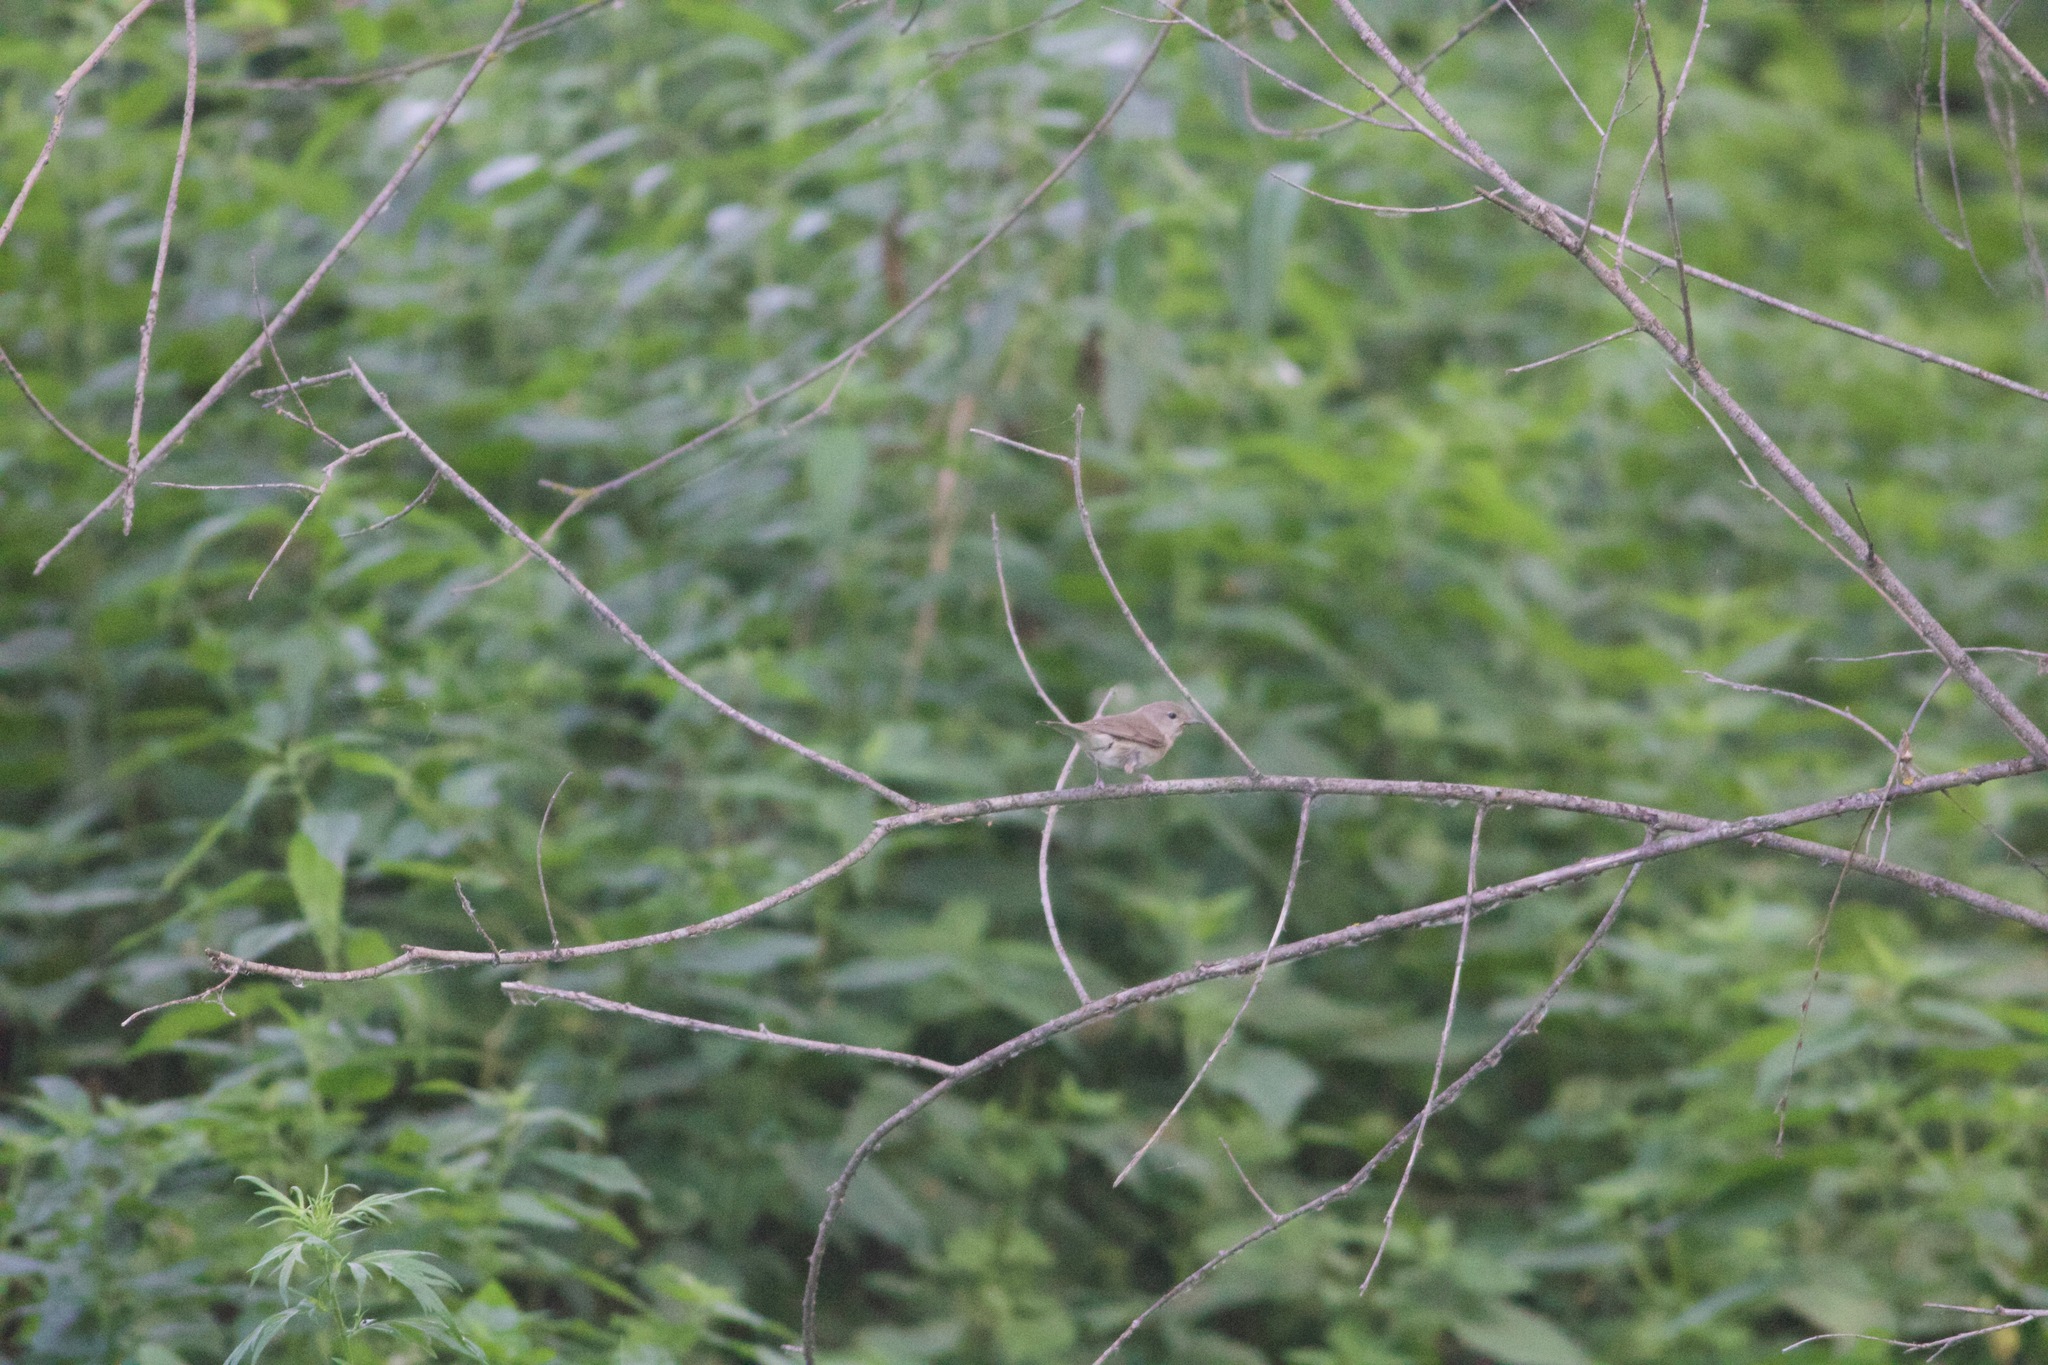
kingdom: Animalia
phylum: Chordata
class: Aves
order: Passeriformes
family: Sylviidae
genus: Sylvia
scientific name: Sylvia borin
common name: Garden warbler
